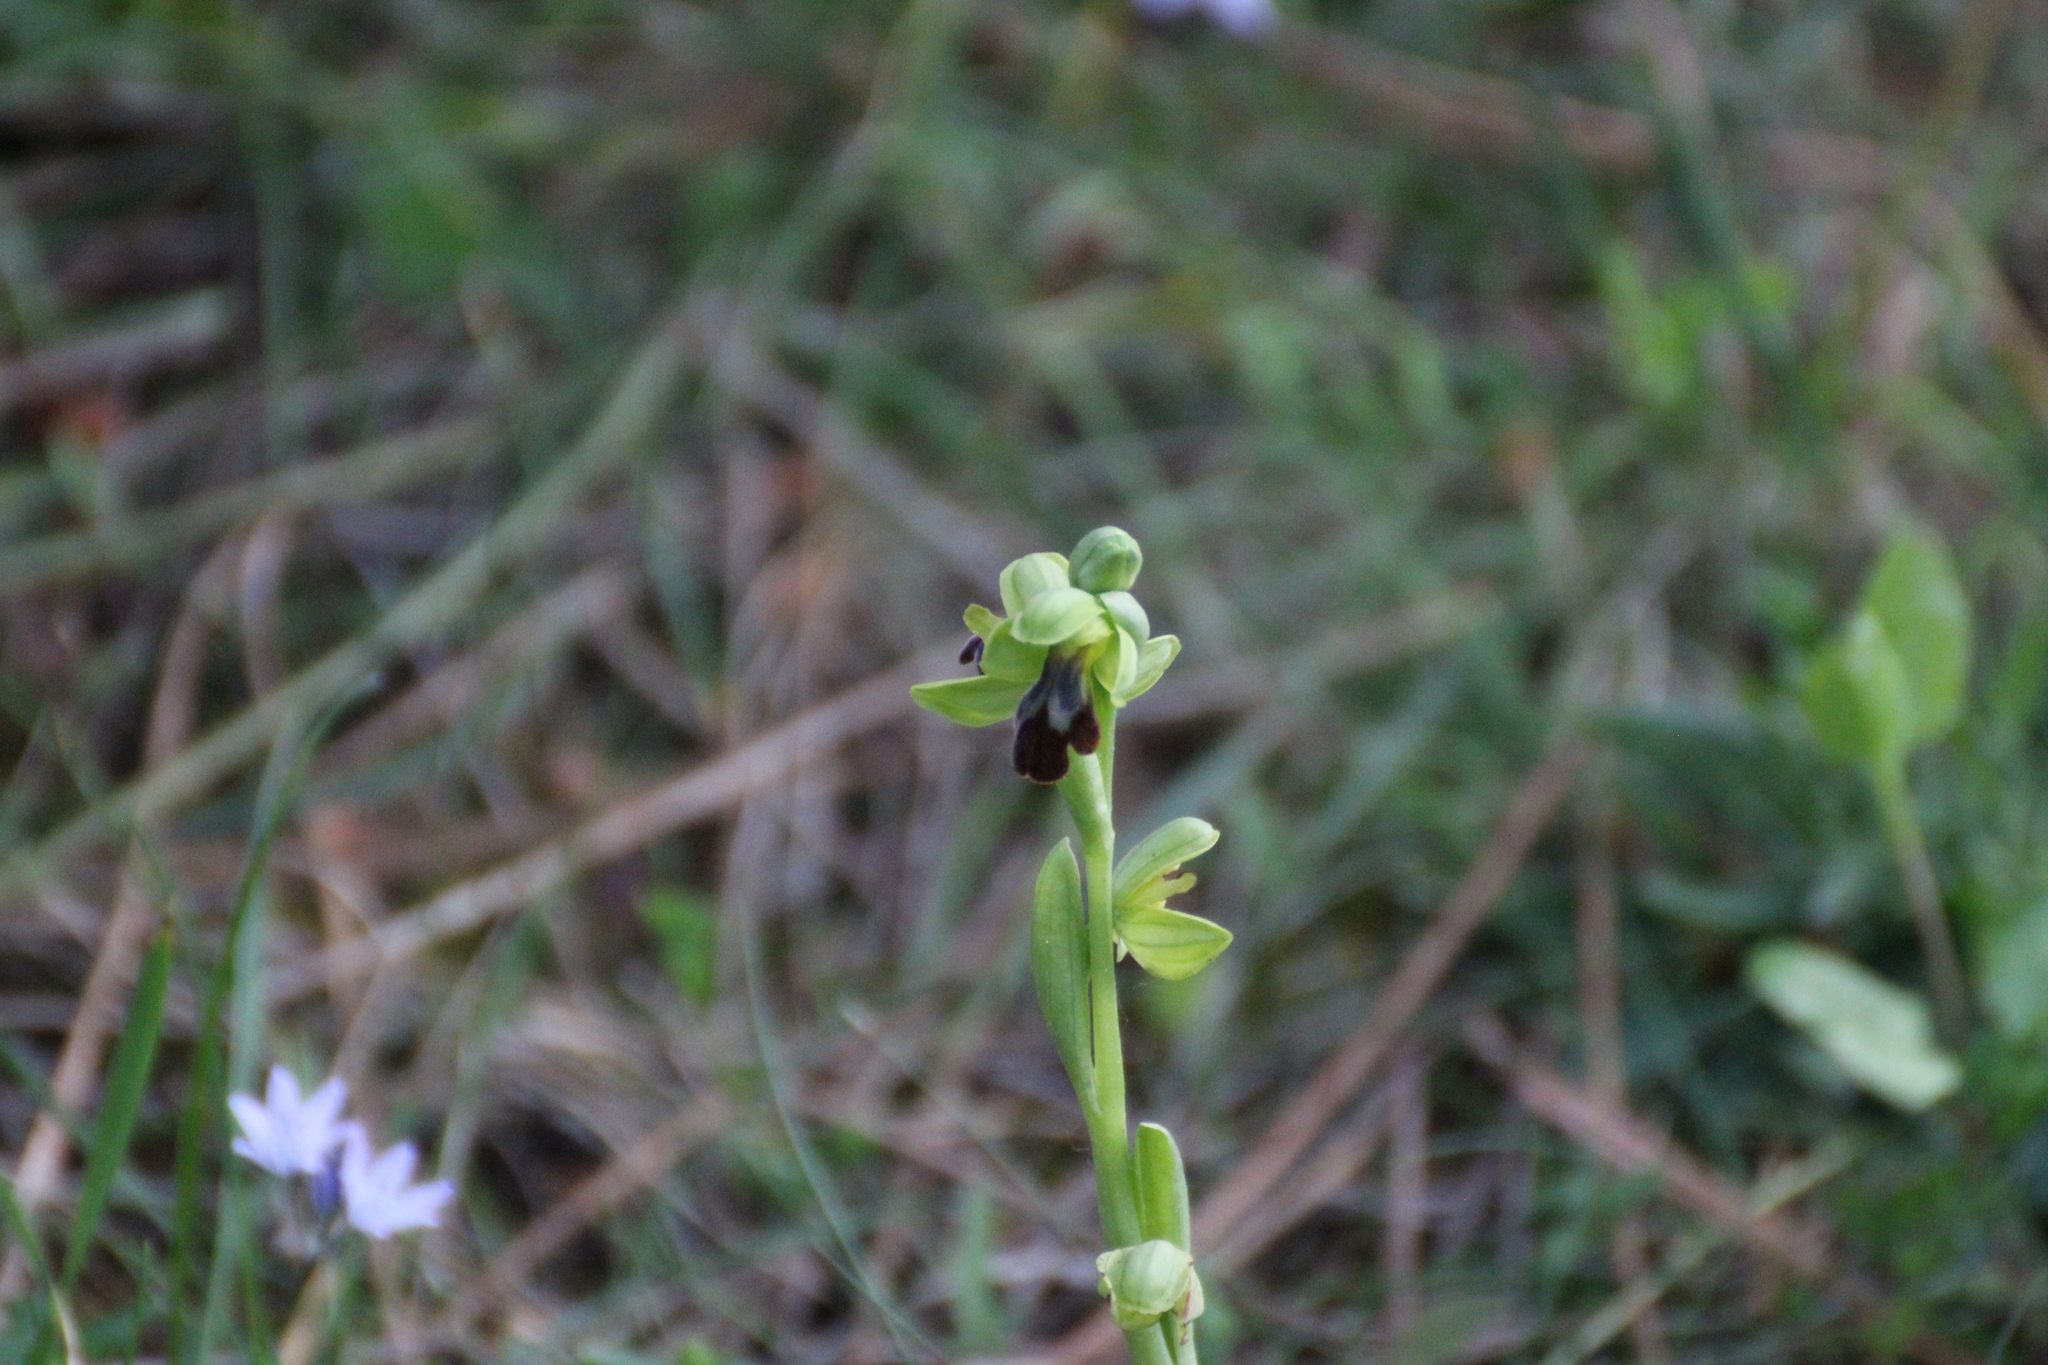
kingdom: Plantae
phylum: Tracheophyta
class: Liliopsida
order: Asparagales
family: Orchidaceae
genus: Ophrys
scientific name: Ophrys fusca
